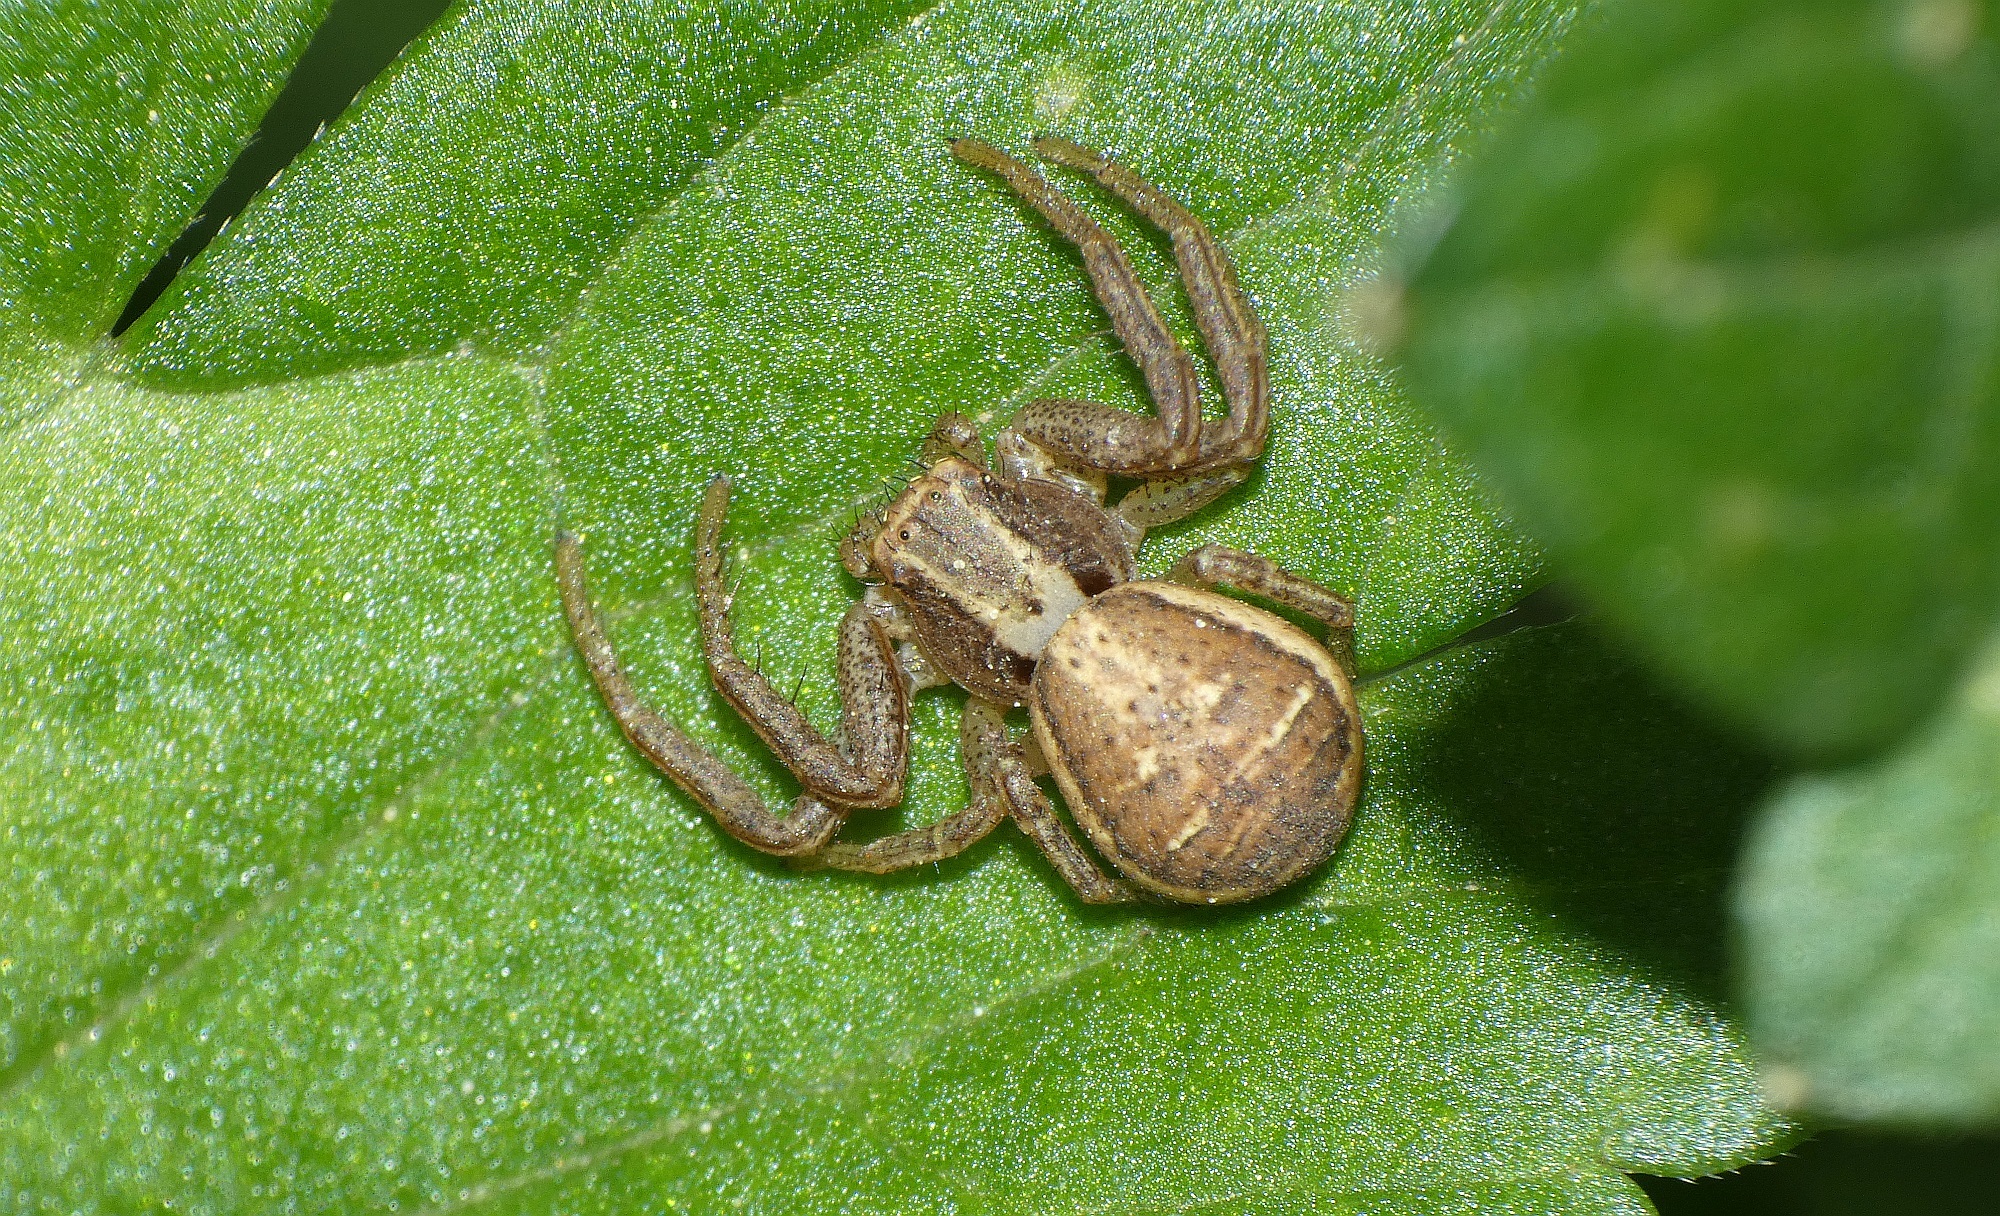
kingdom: Animalia
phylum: Arthropoda
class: Arachnida
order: Araneae
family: Thomisidae
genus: Xysticus
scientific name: Xysticus ulmi
